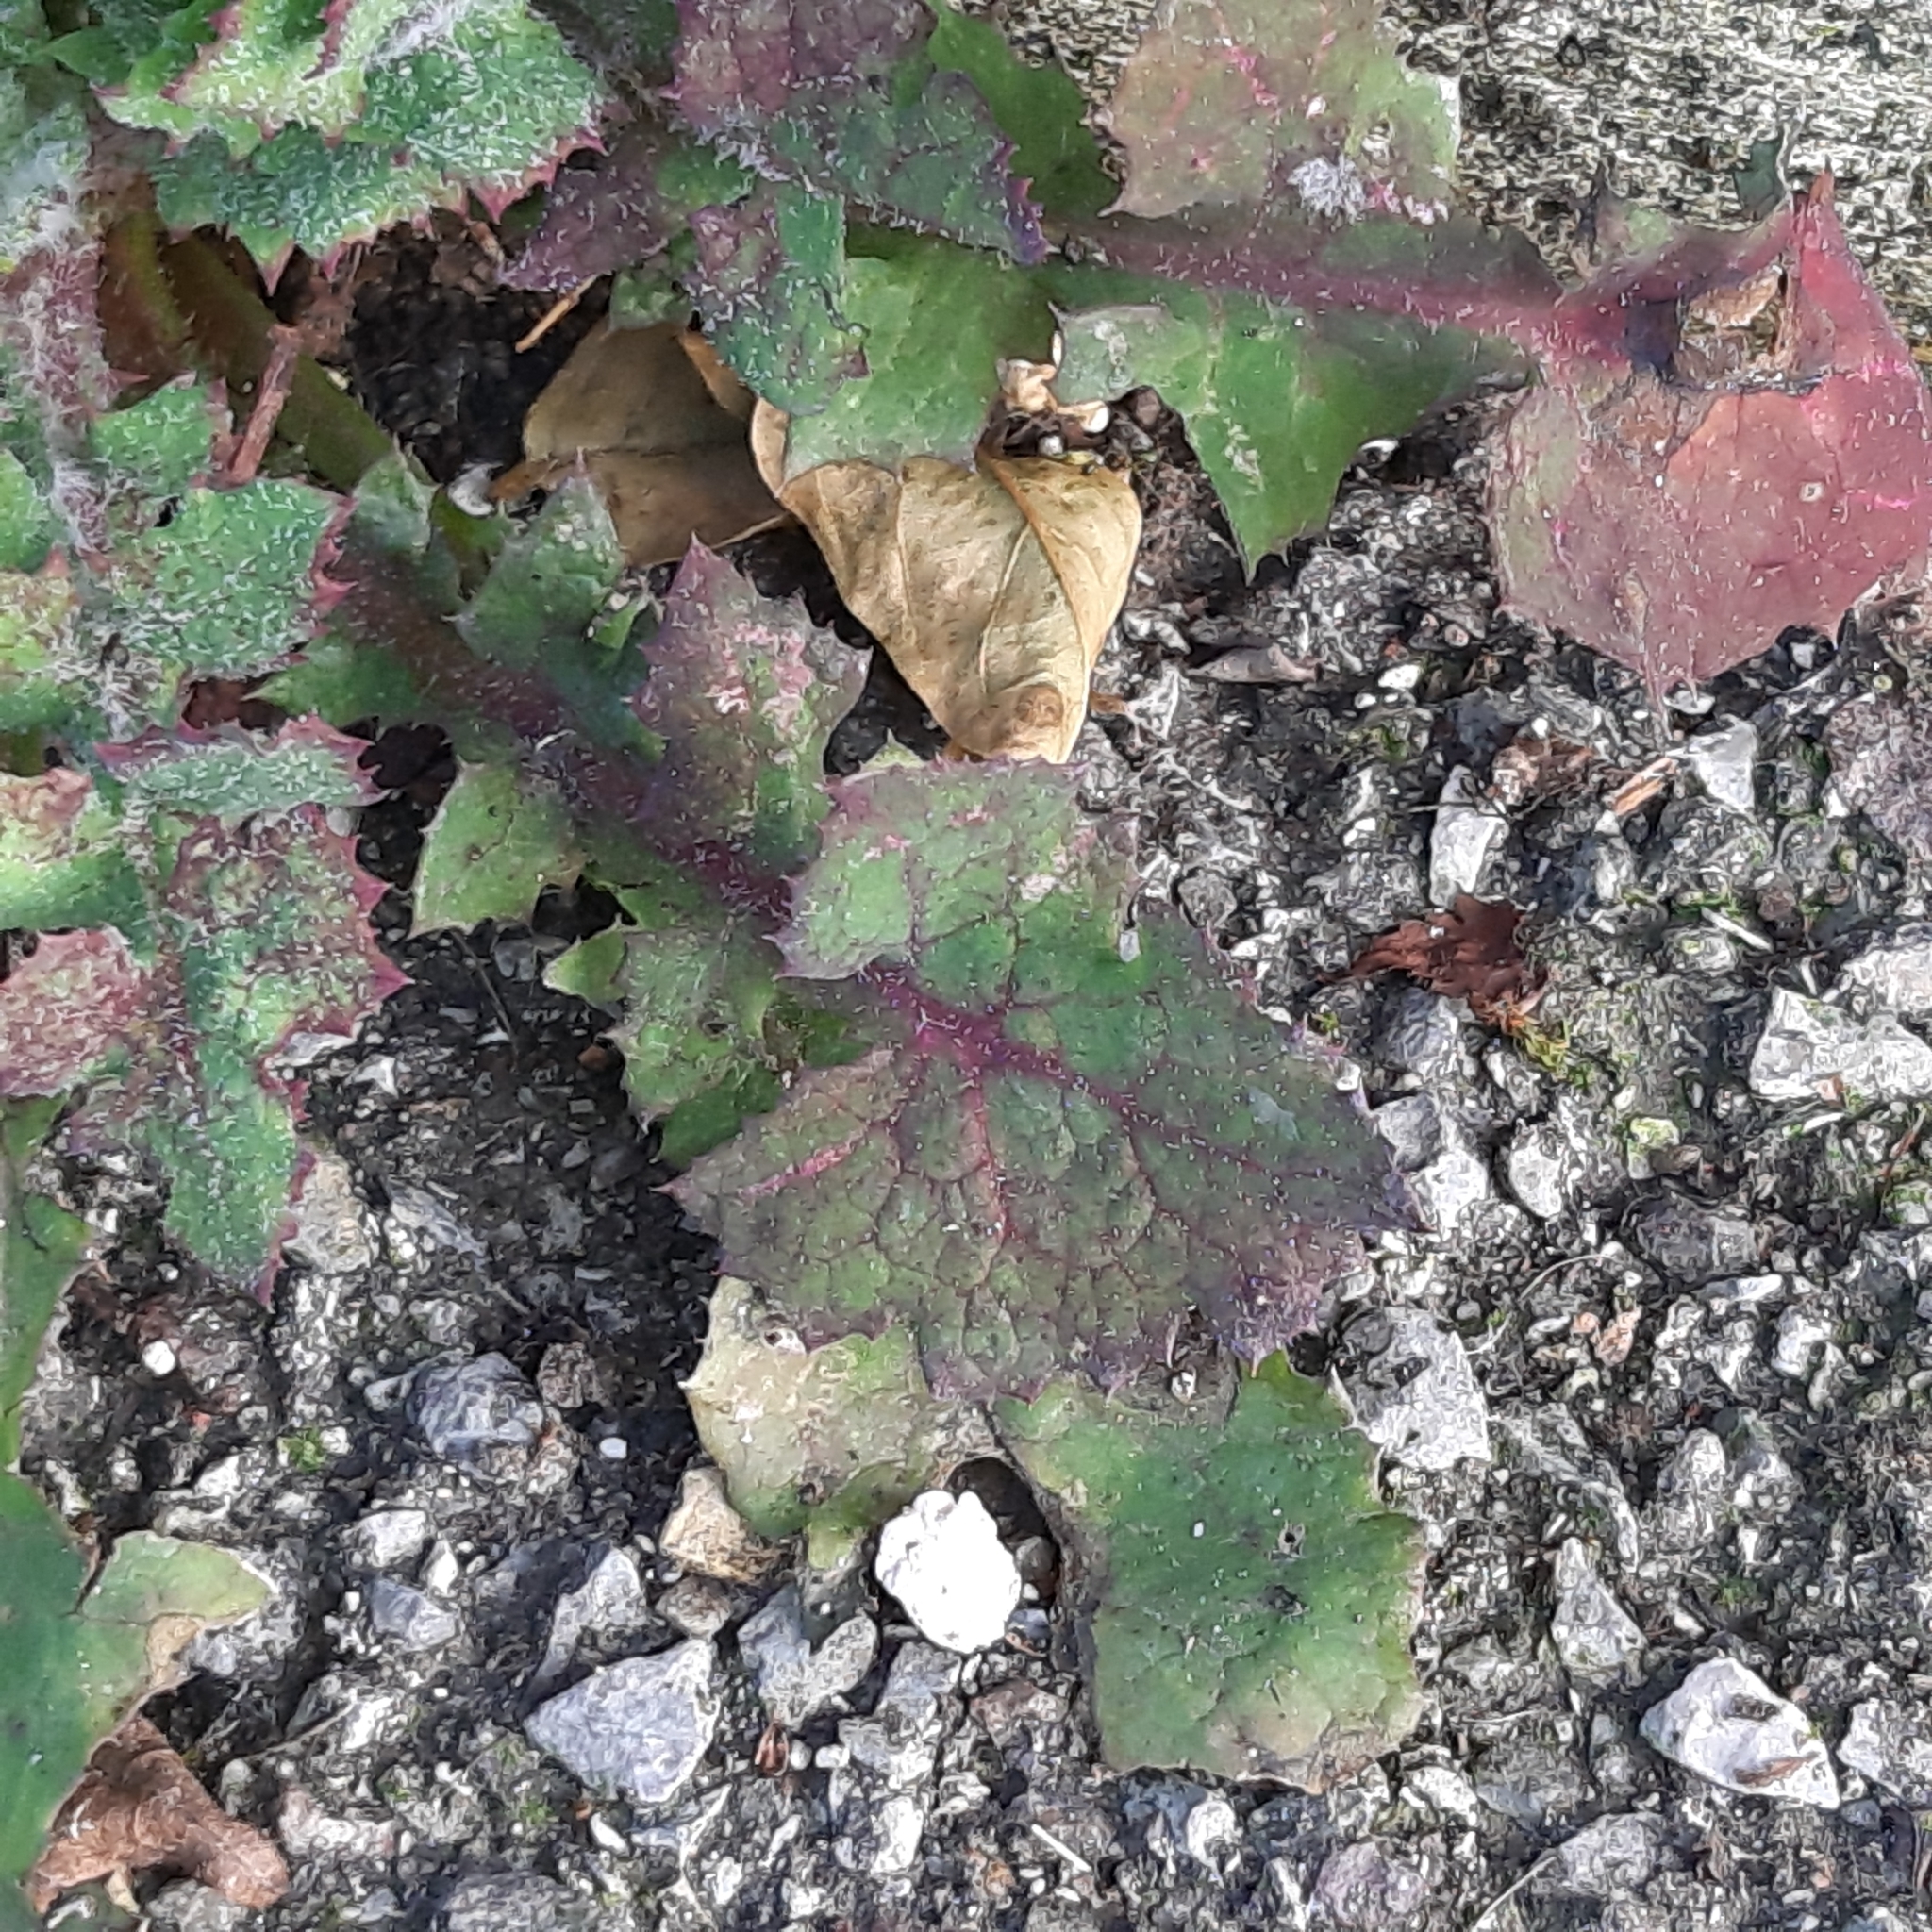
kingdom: Plantae
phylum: Tracheophyta
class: Magnoliopsida
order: Asterales
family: Asteraceae
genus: Sonchus
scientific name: Sonchus oleraceus
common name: Common sowthistle
